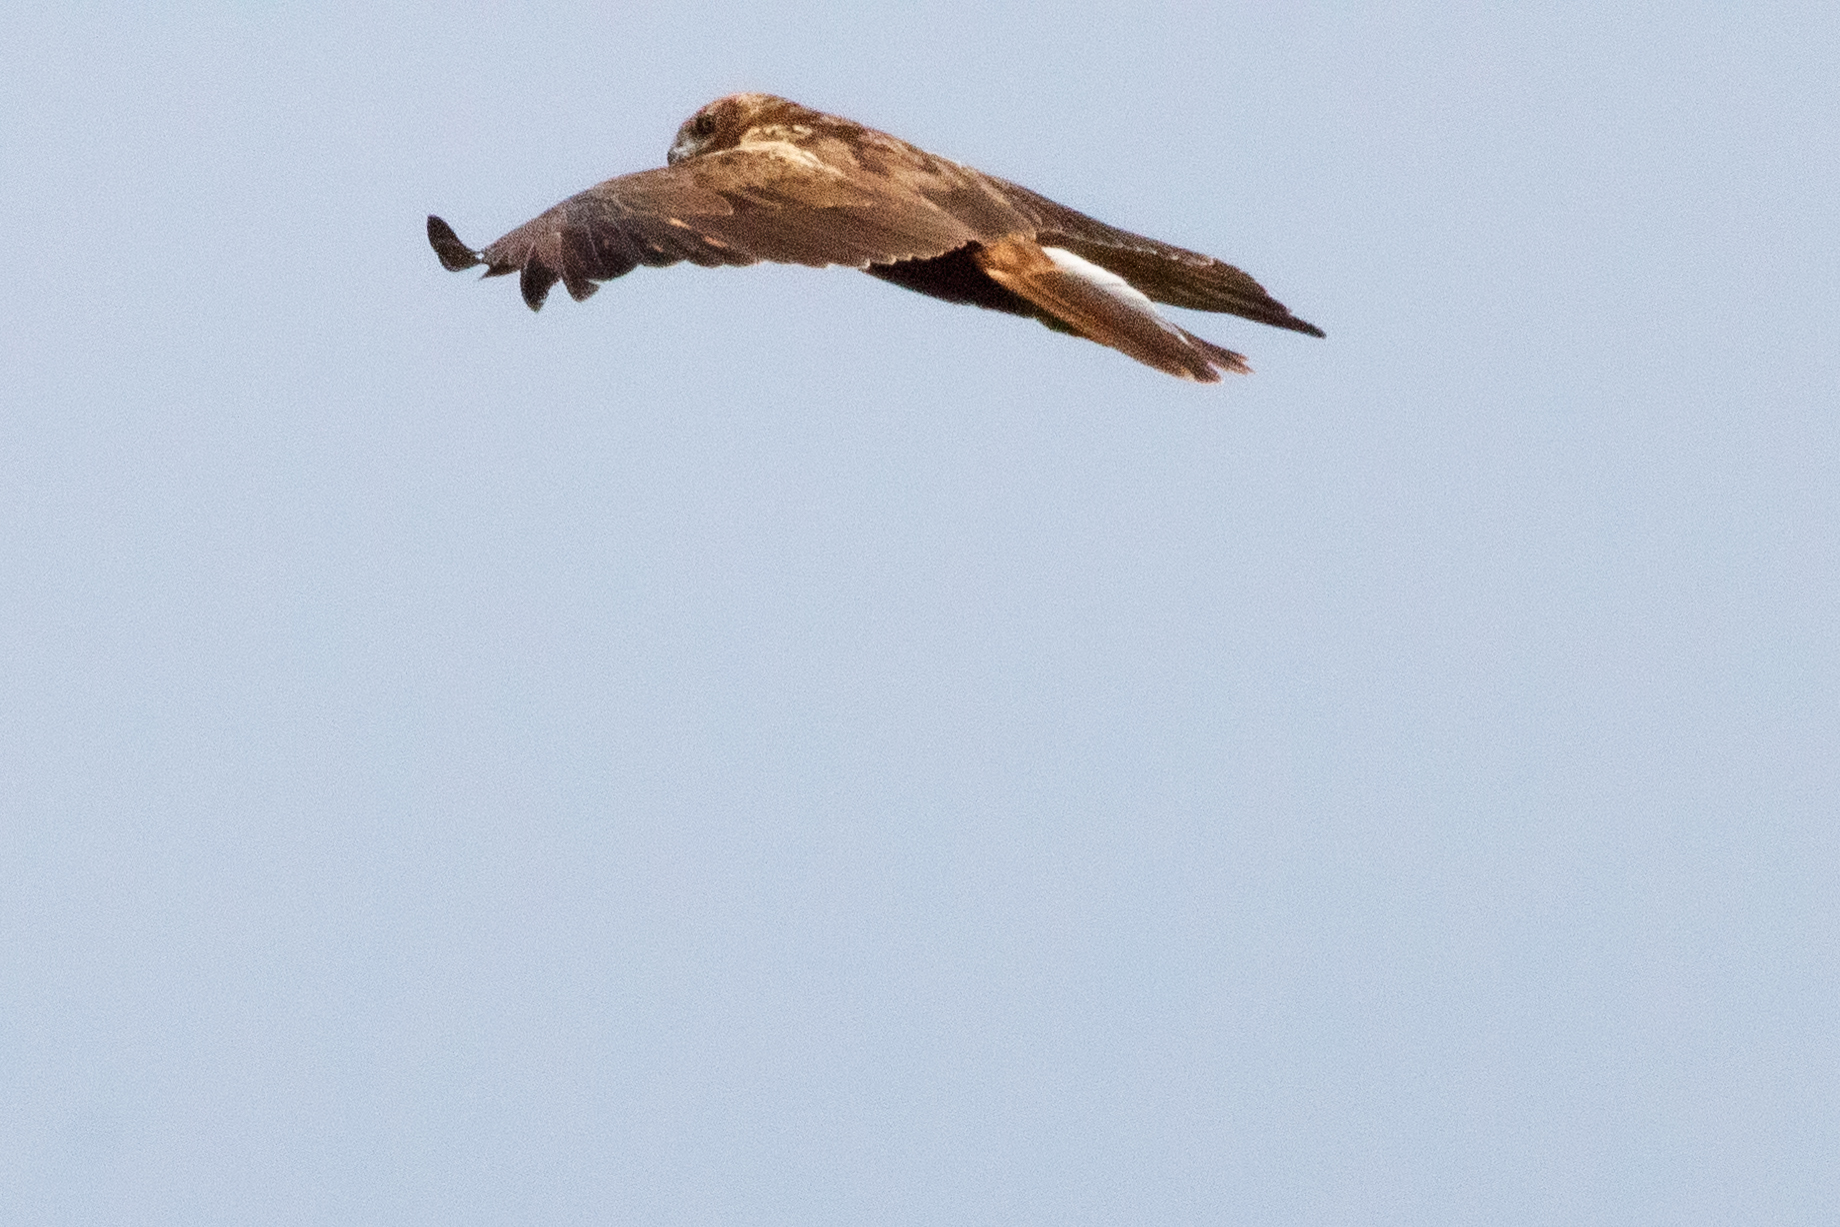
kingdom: Animalia
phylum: Chordata
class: Aves
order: Accipitriformes
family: Accipitridae
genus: Circus
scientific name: Circus aeruginosus
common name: Western marsh harrier
